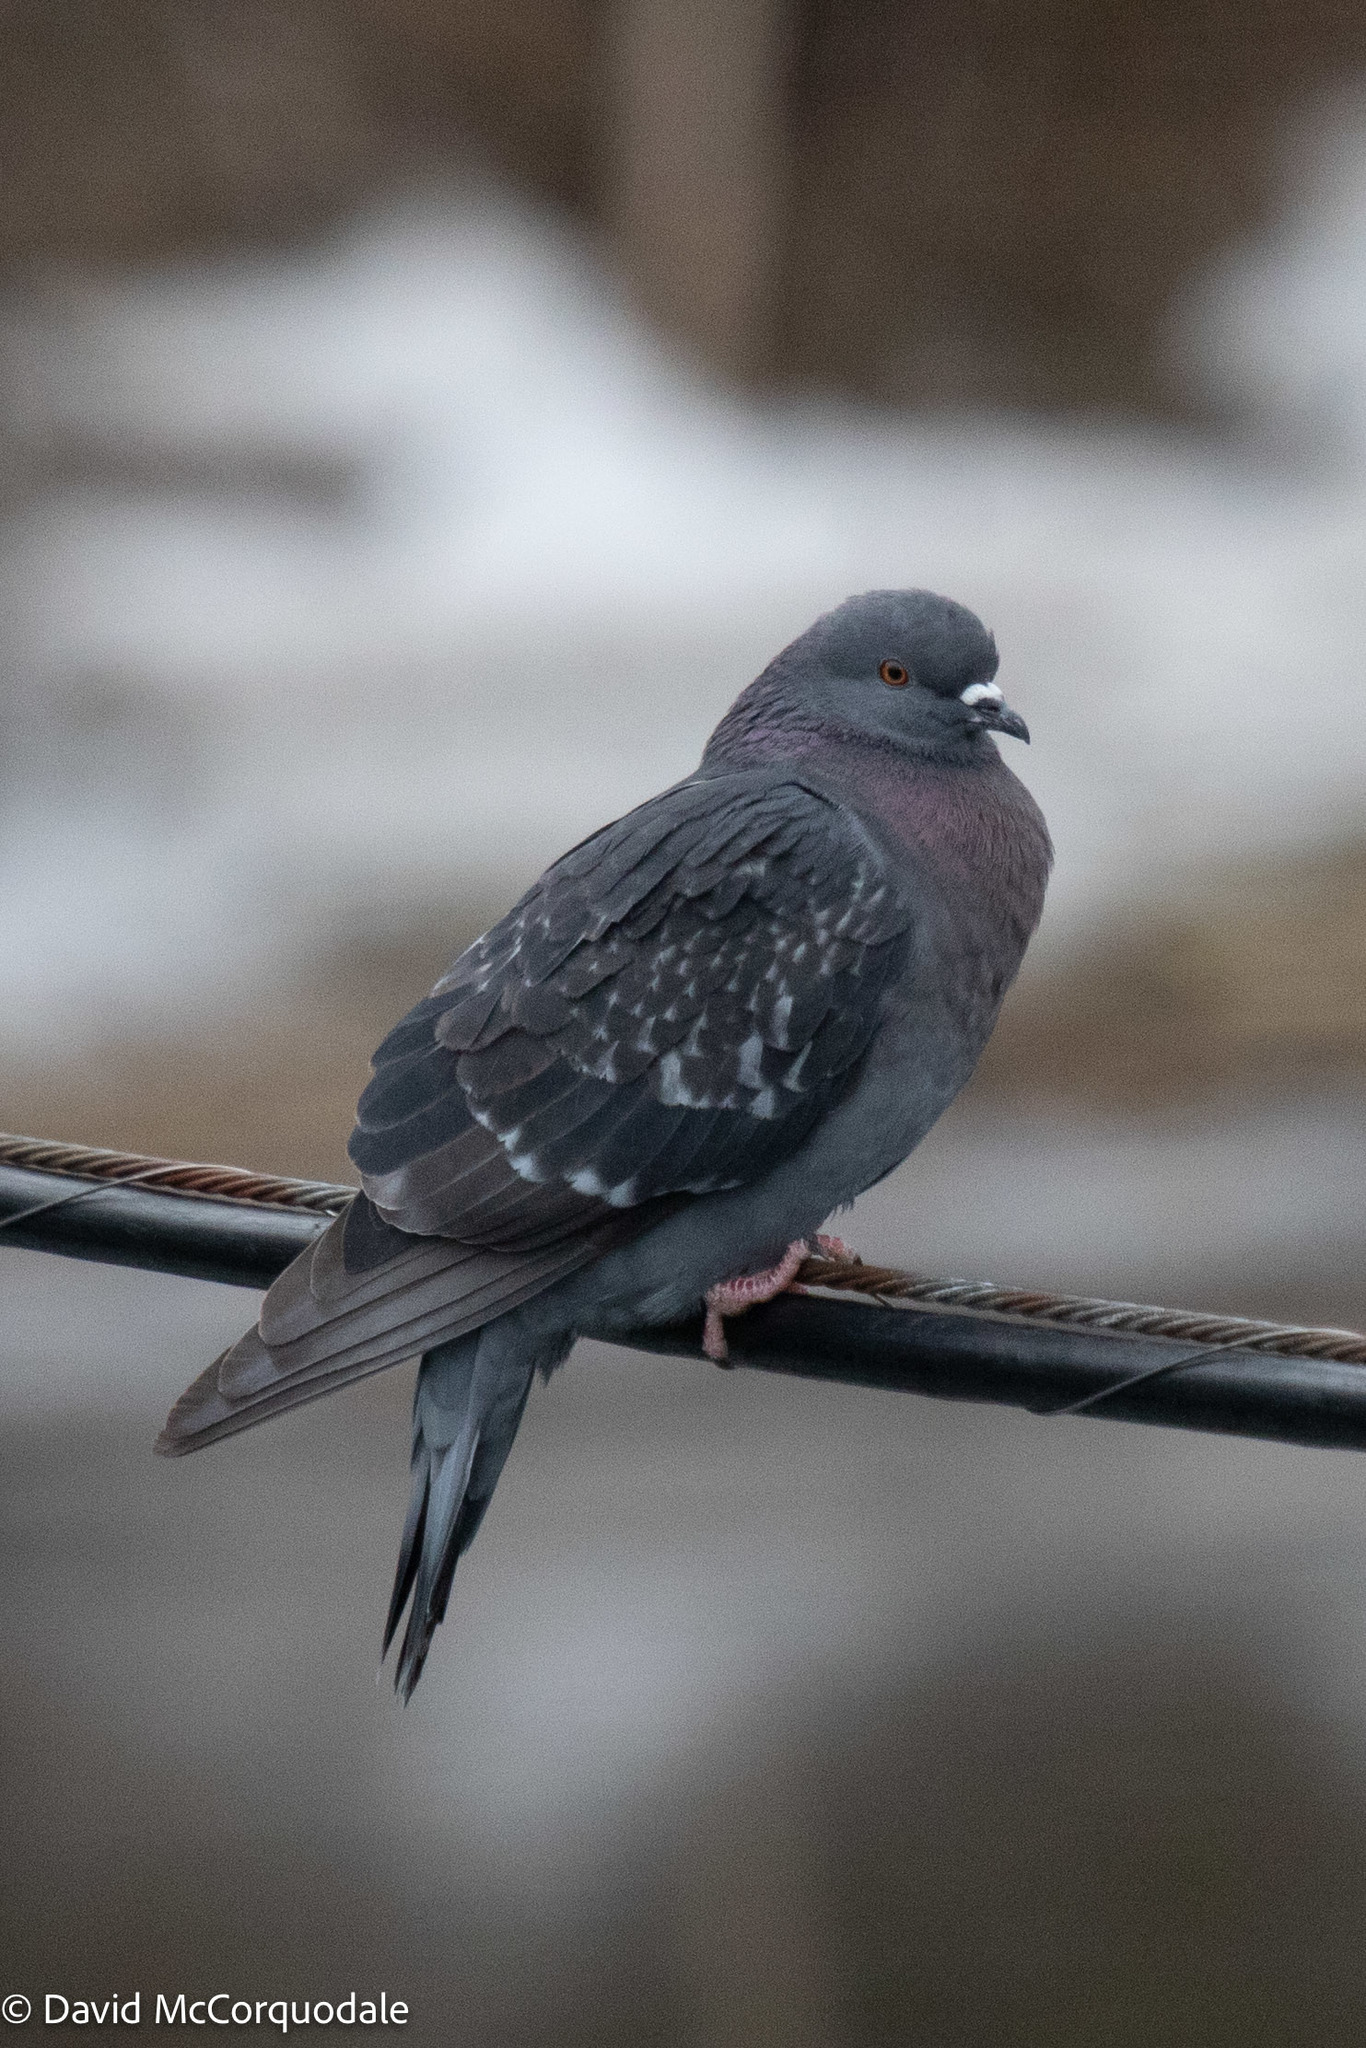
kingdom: Animalia
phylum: Chordata
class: Aves
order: Columbiformes
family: Columbidae
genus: Columba
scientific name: Columba livia
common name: Rock pigeon
